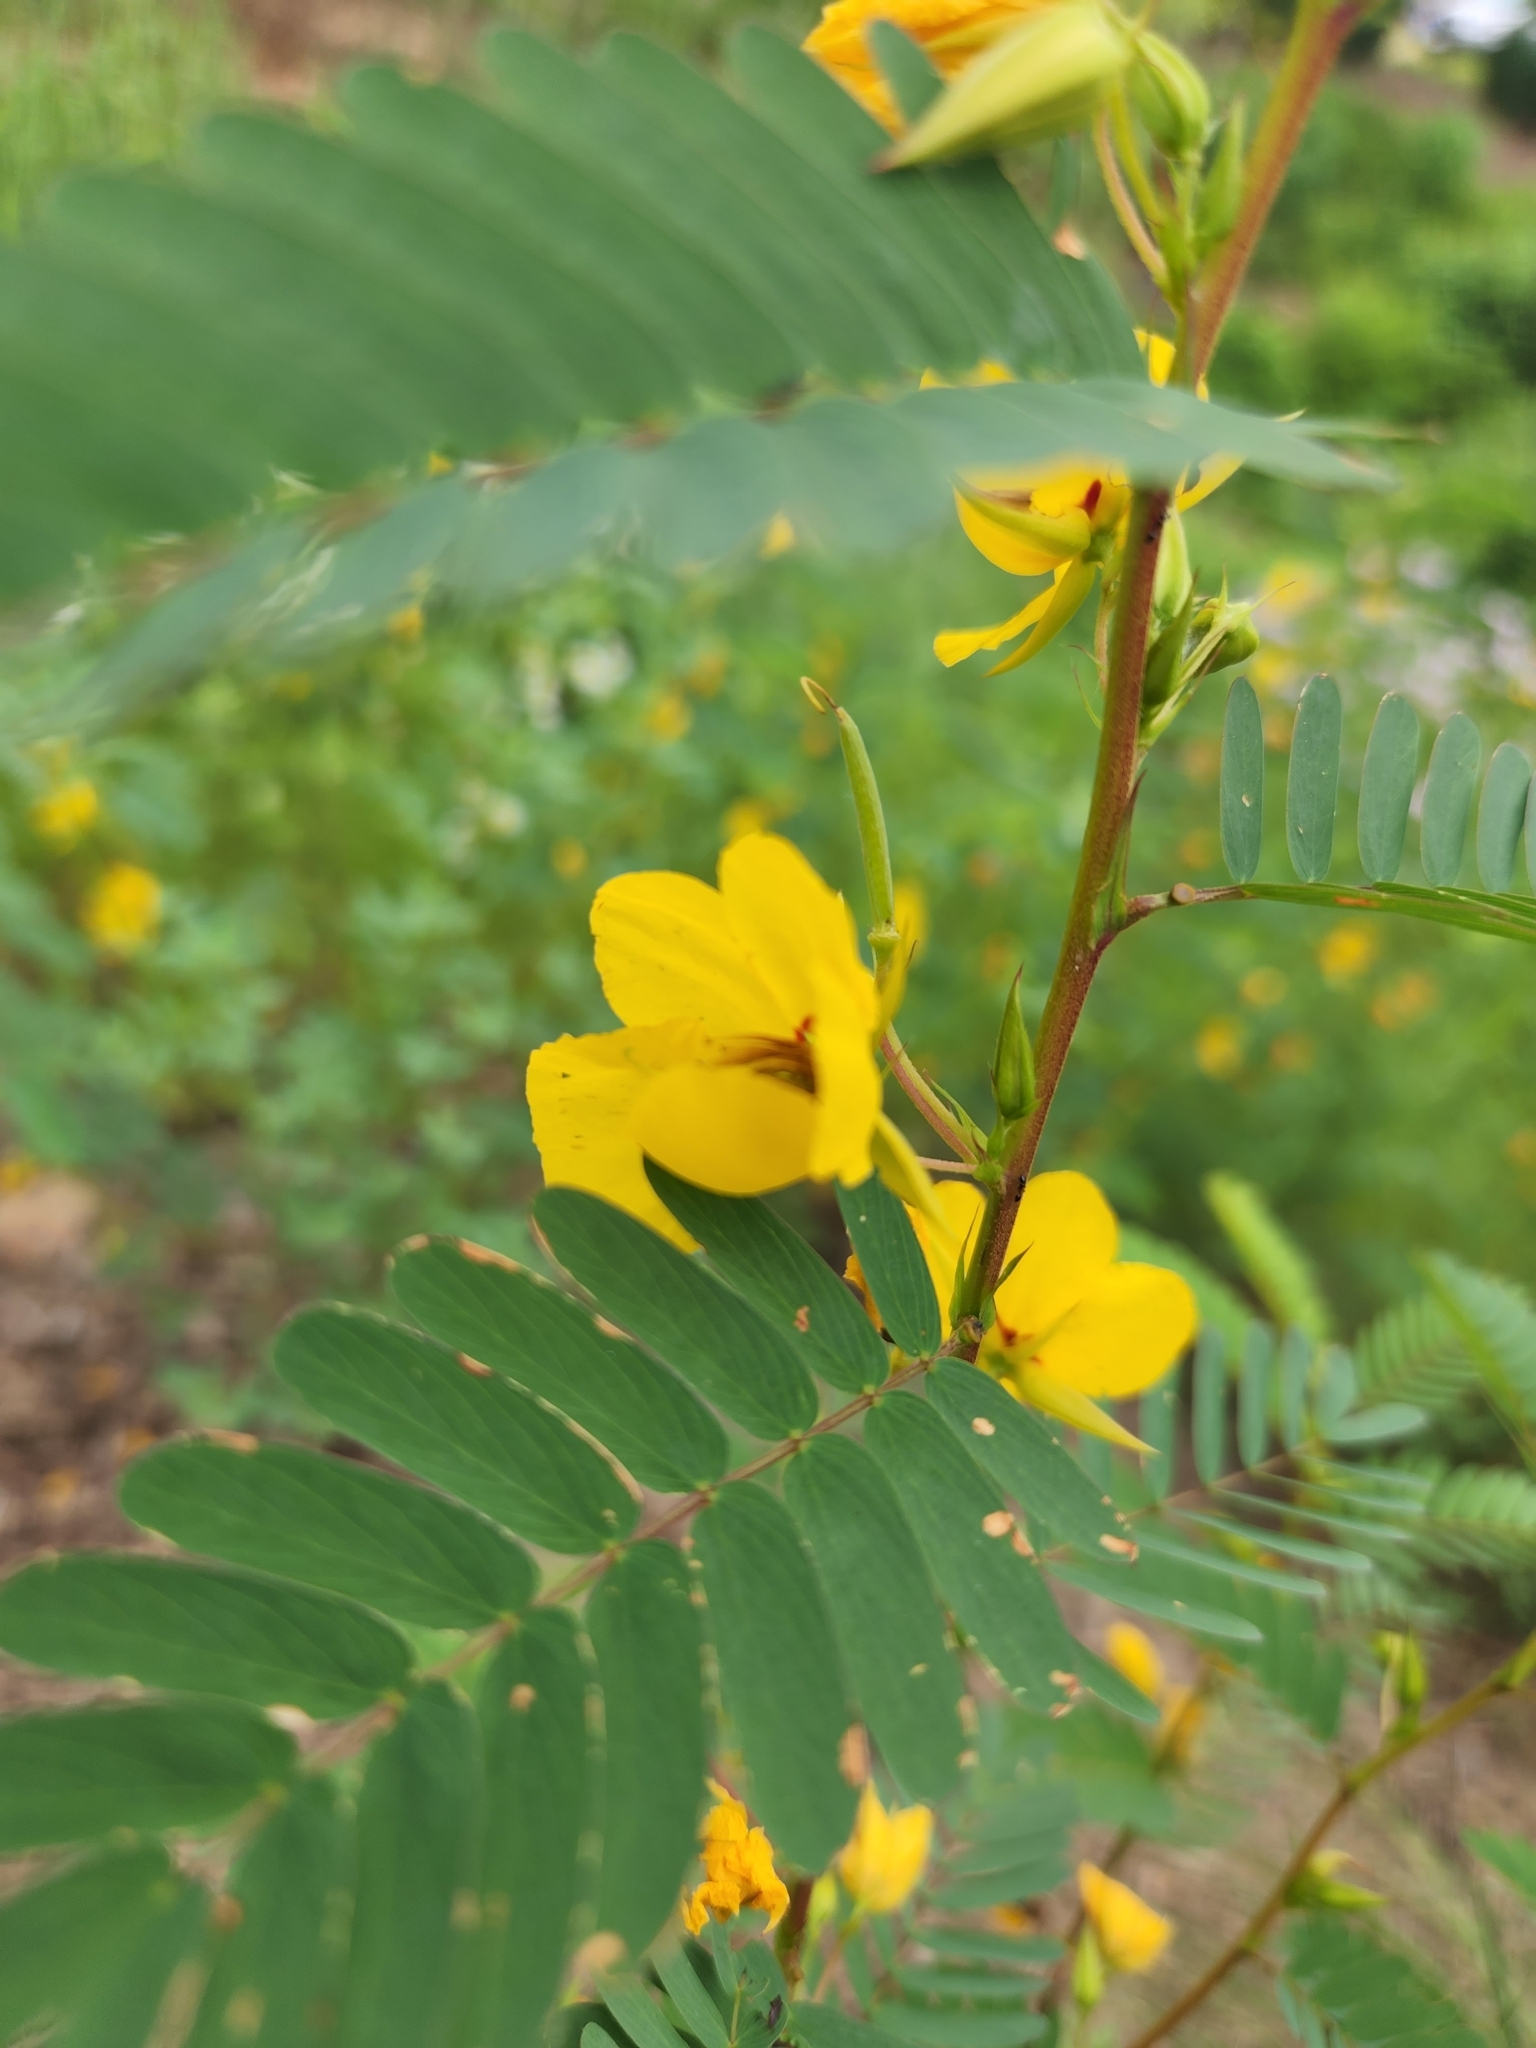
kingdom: Plantae
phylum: Tracheophyta
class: Magnoliopsida
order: Fabales
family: Fabaceae
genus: Chamaecrista
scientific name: Chamaecrista fasciculata
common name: Golden cassia
